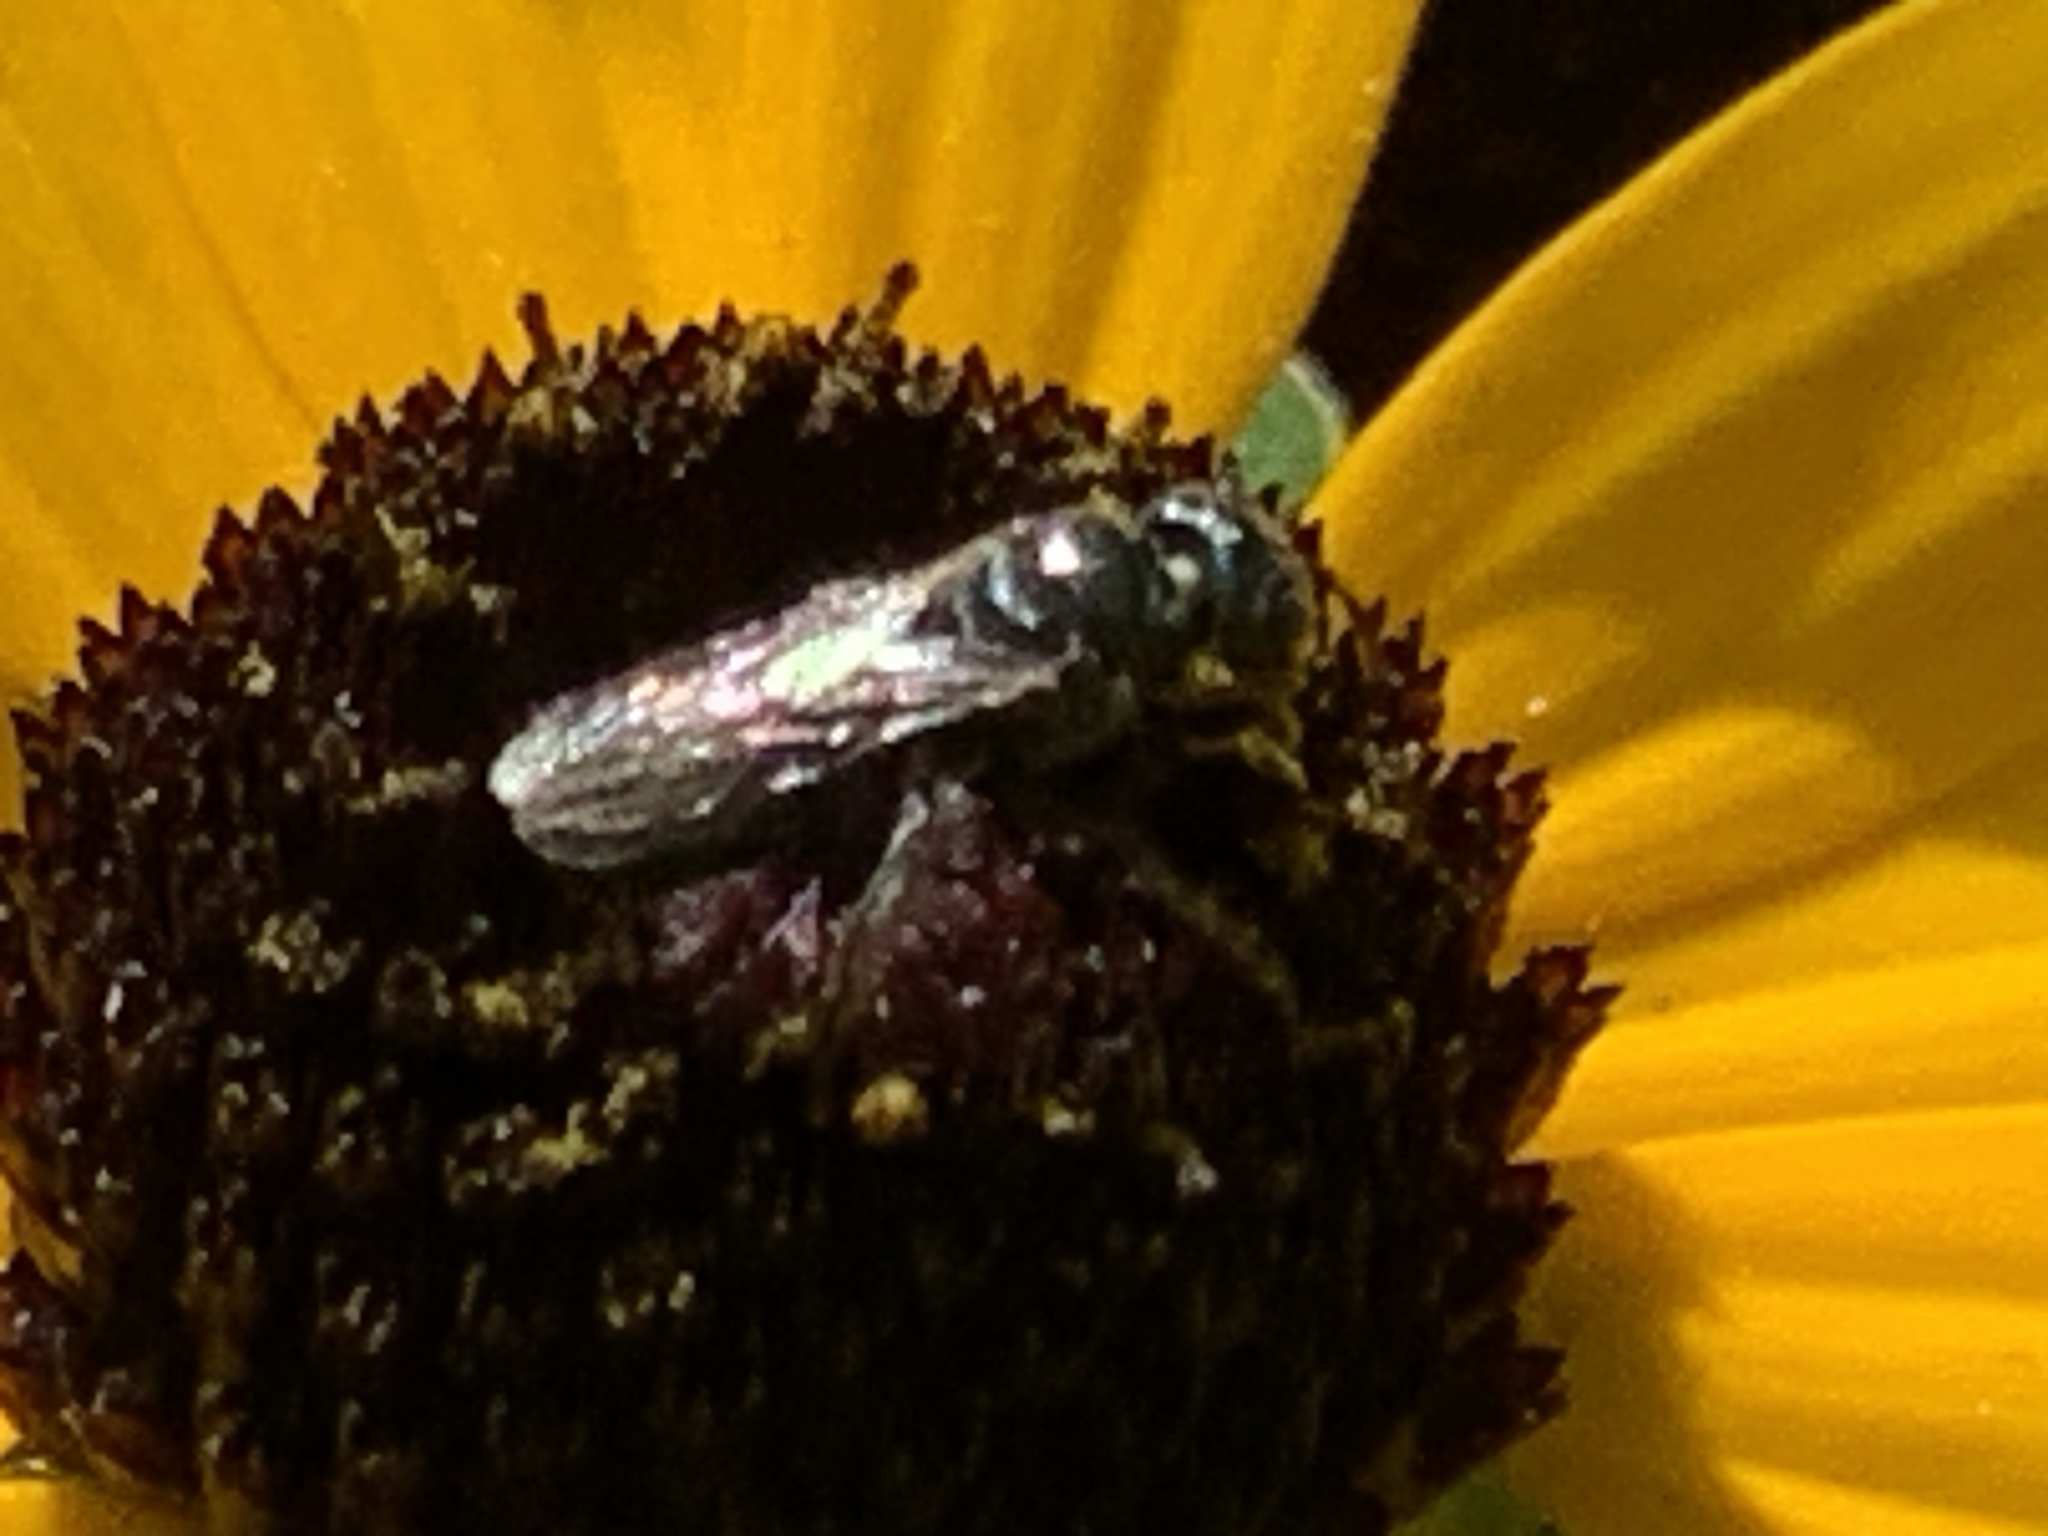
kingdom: Animalia
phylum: Arthropoda
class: Insecta
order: Hymenoptera
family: Apidae
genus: Zadontomerus
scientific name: Zadontomerus
